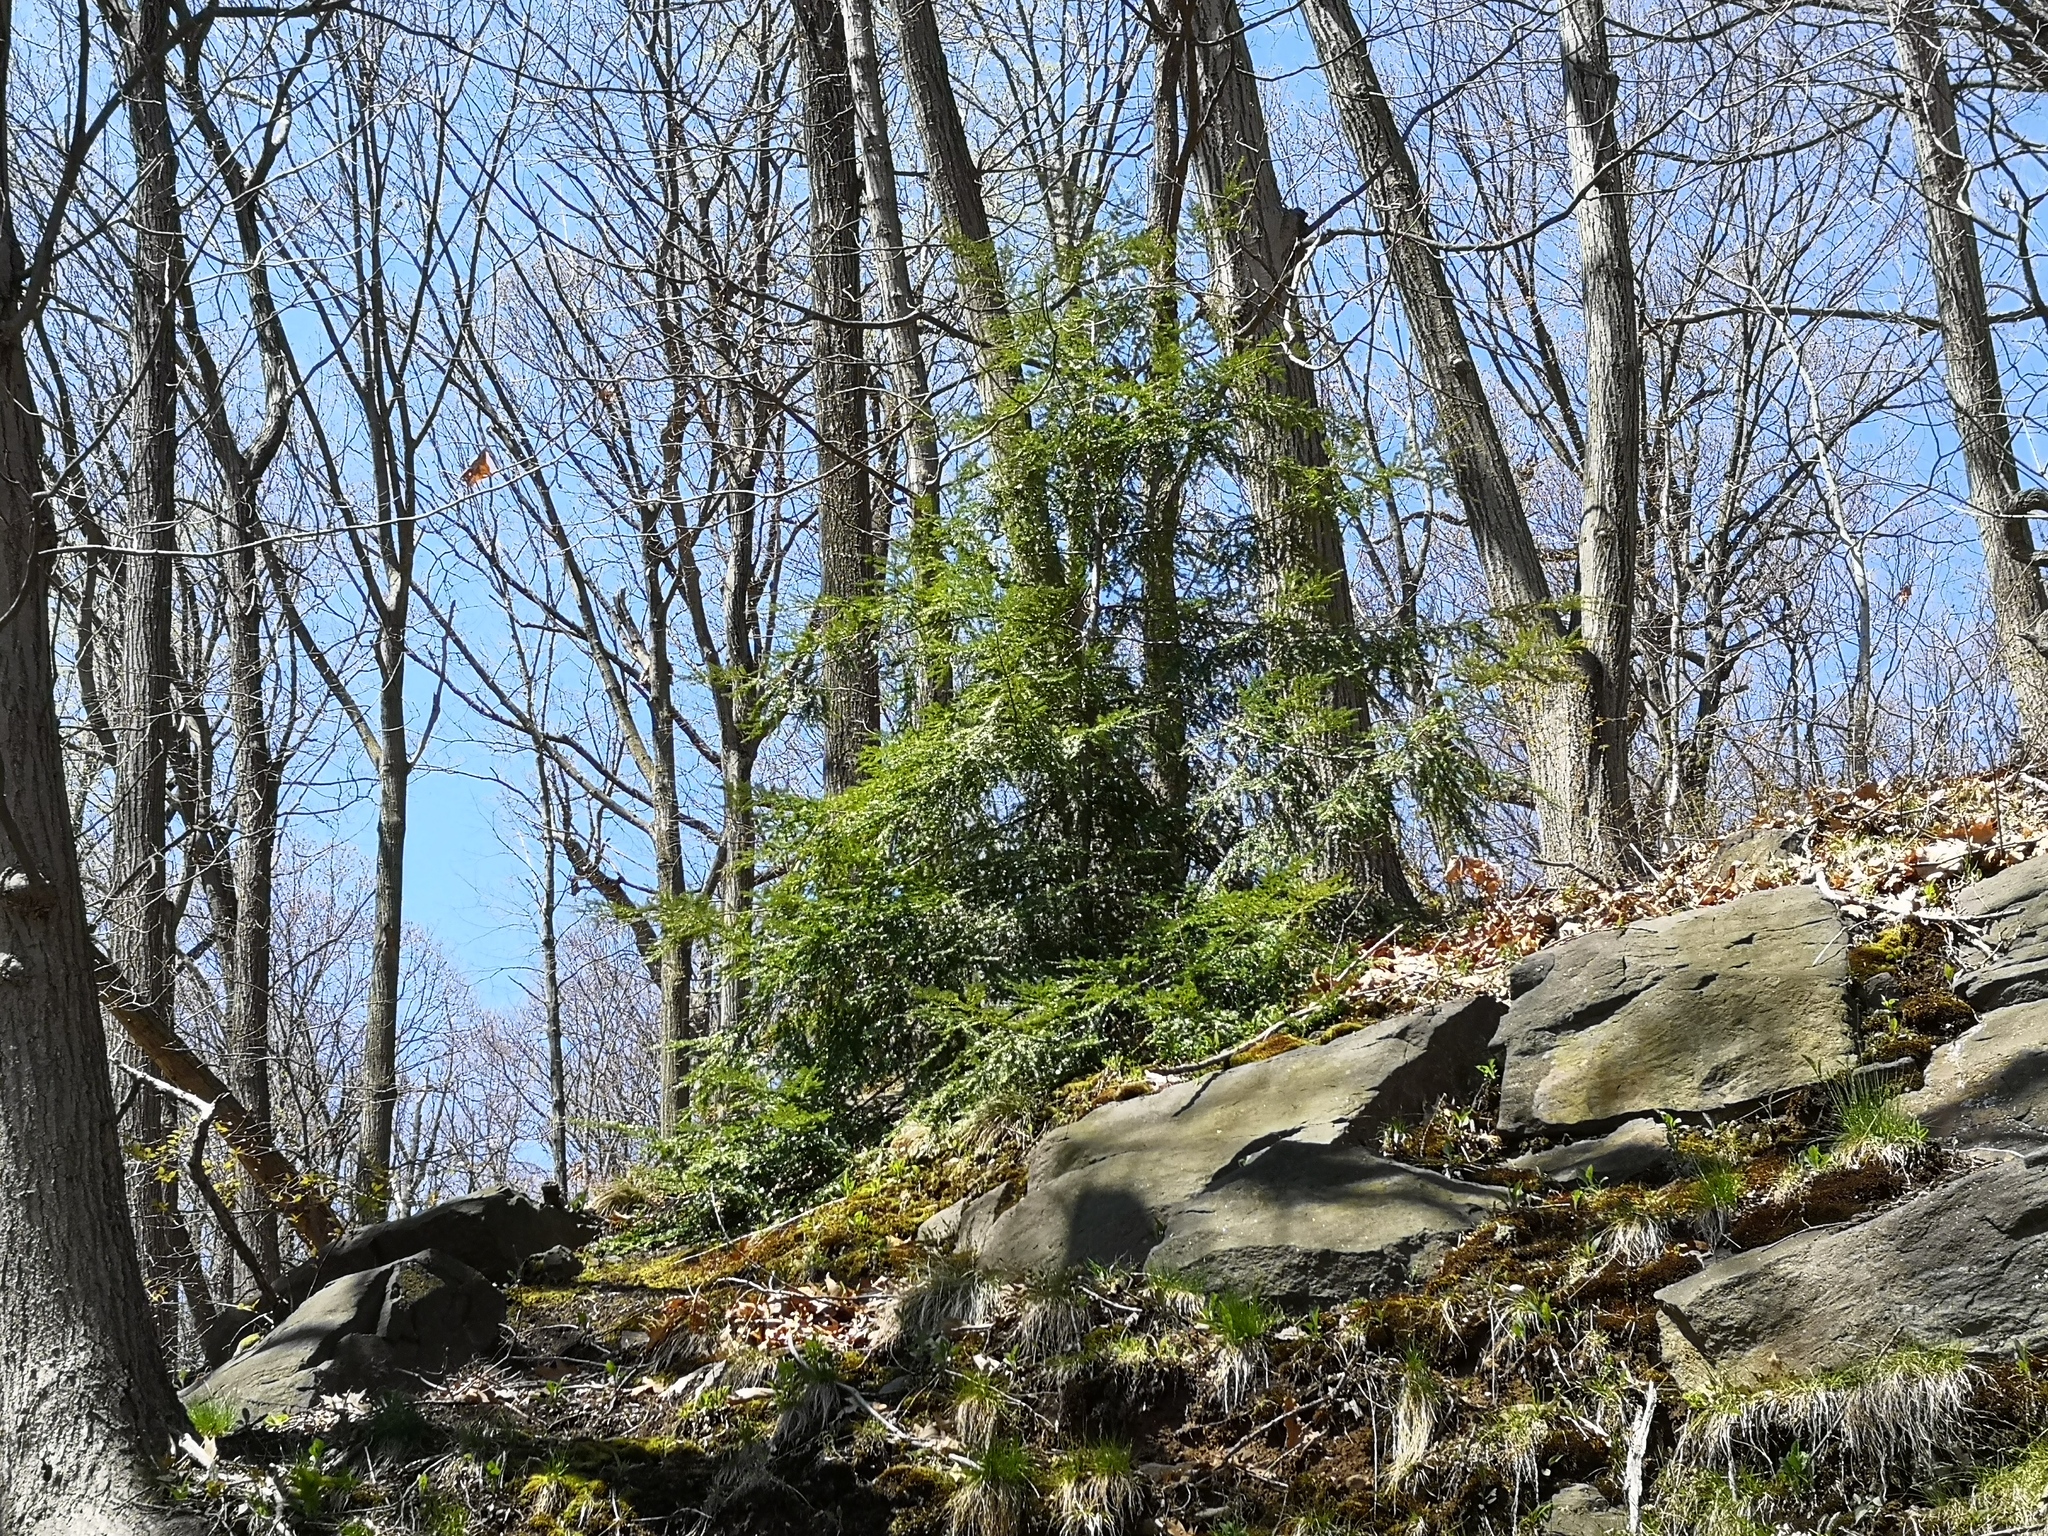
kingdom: Plantae
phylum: Tracheophyta
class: Pinopsida
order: Pinales
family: Pinaceae
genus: Tsuga
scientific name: Tsuga canadensis
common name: Eastern hemlock
